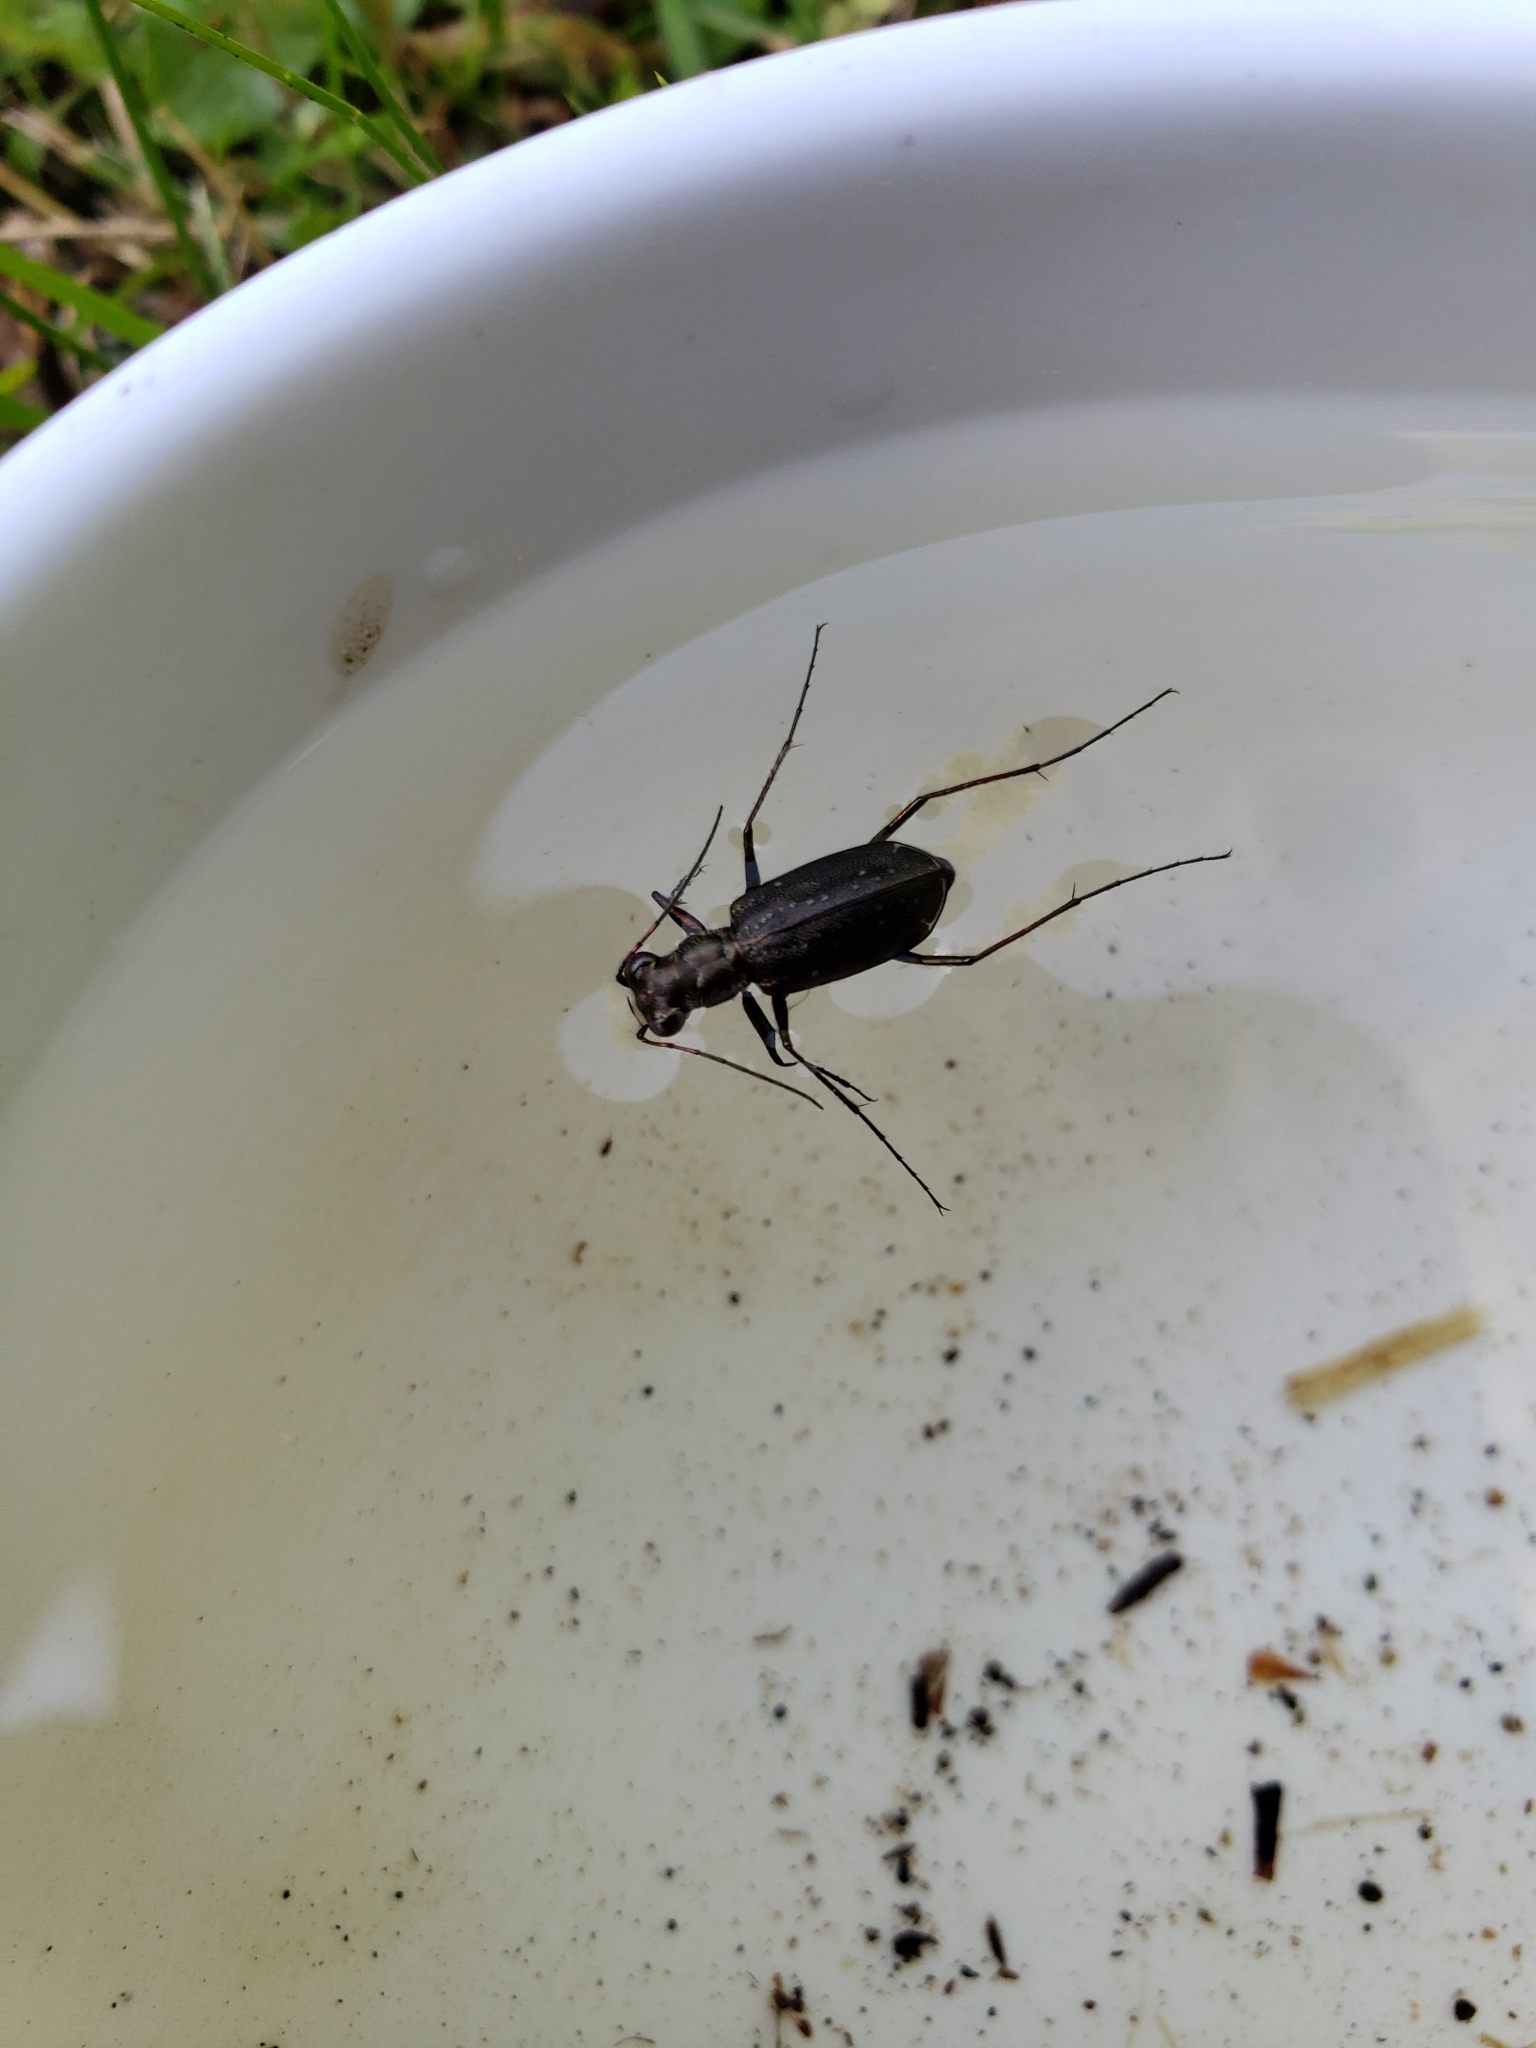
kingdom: Animalia
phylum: Arthropoda
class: Insecta
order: Coleoptera
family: Carabidae
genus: Cicindela
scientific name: Cicindela punctulata
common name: Punctured tiger beetle
